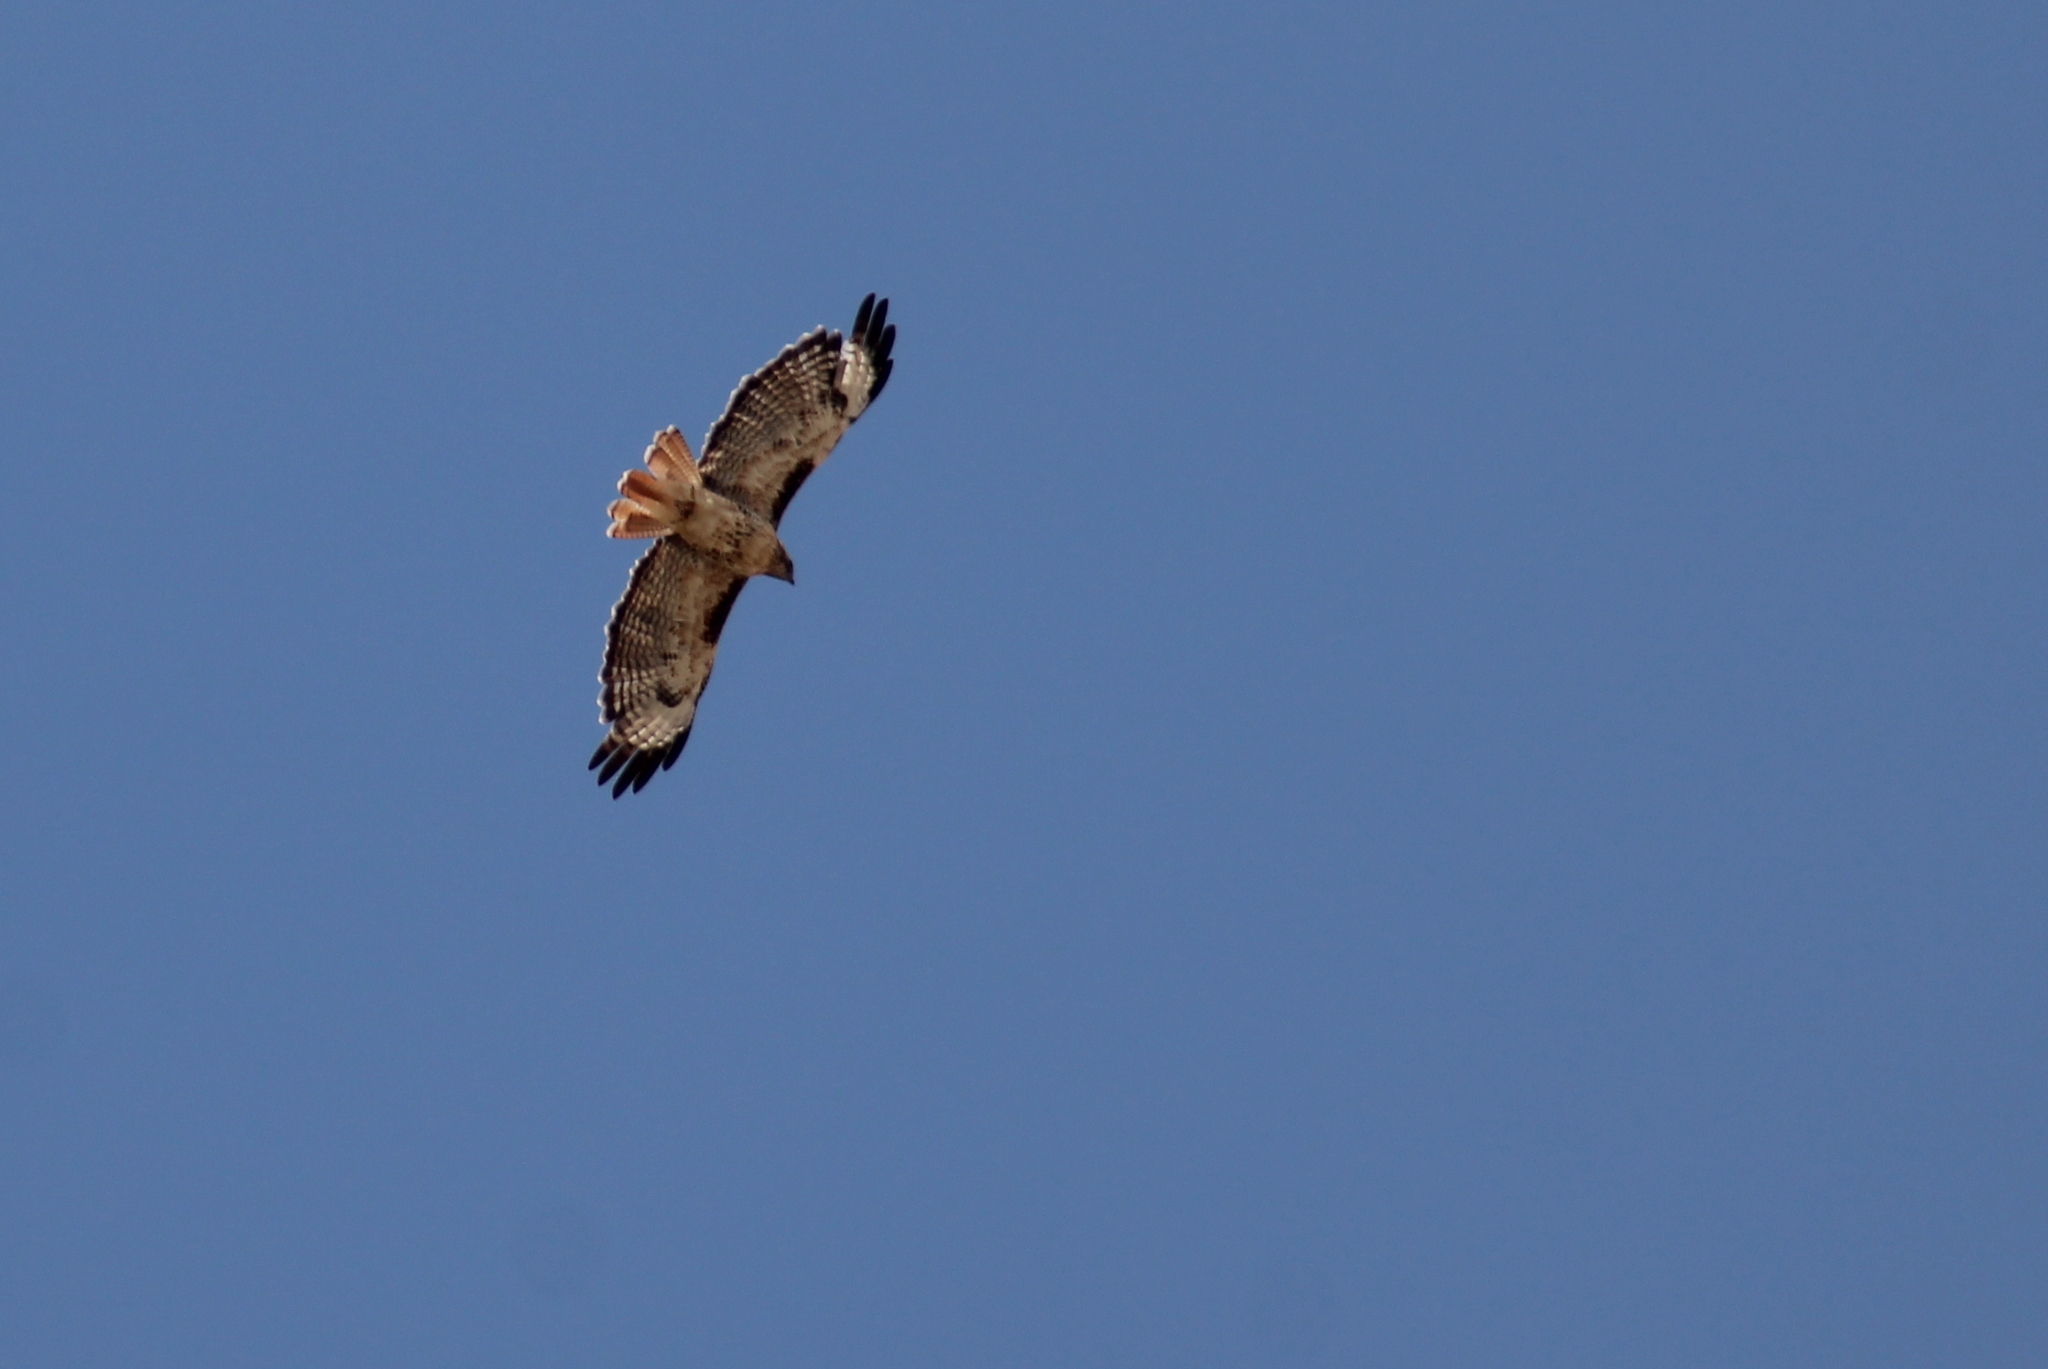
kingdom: Animalia
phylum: Chordata
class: Aves
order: Accipitriformes
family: Accipitridae
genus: Buteo
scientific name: Buteo jamaicensis
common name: Red-tailed hawk
